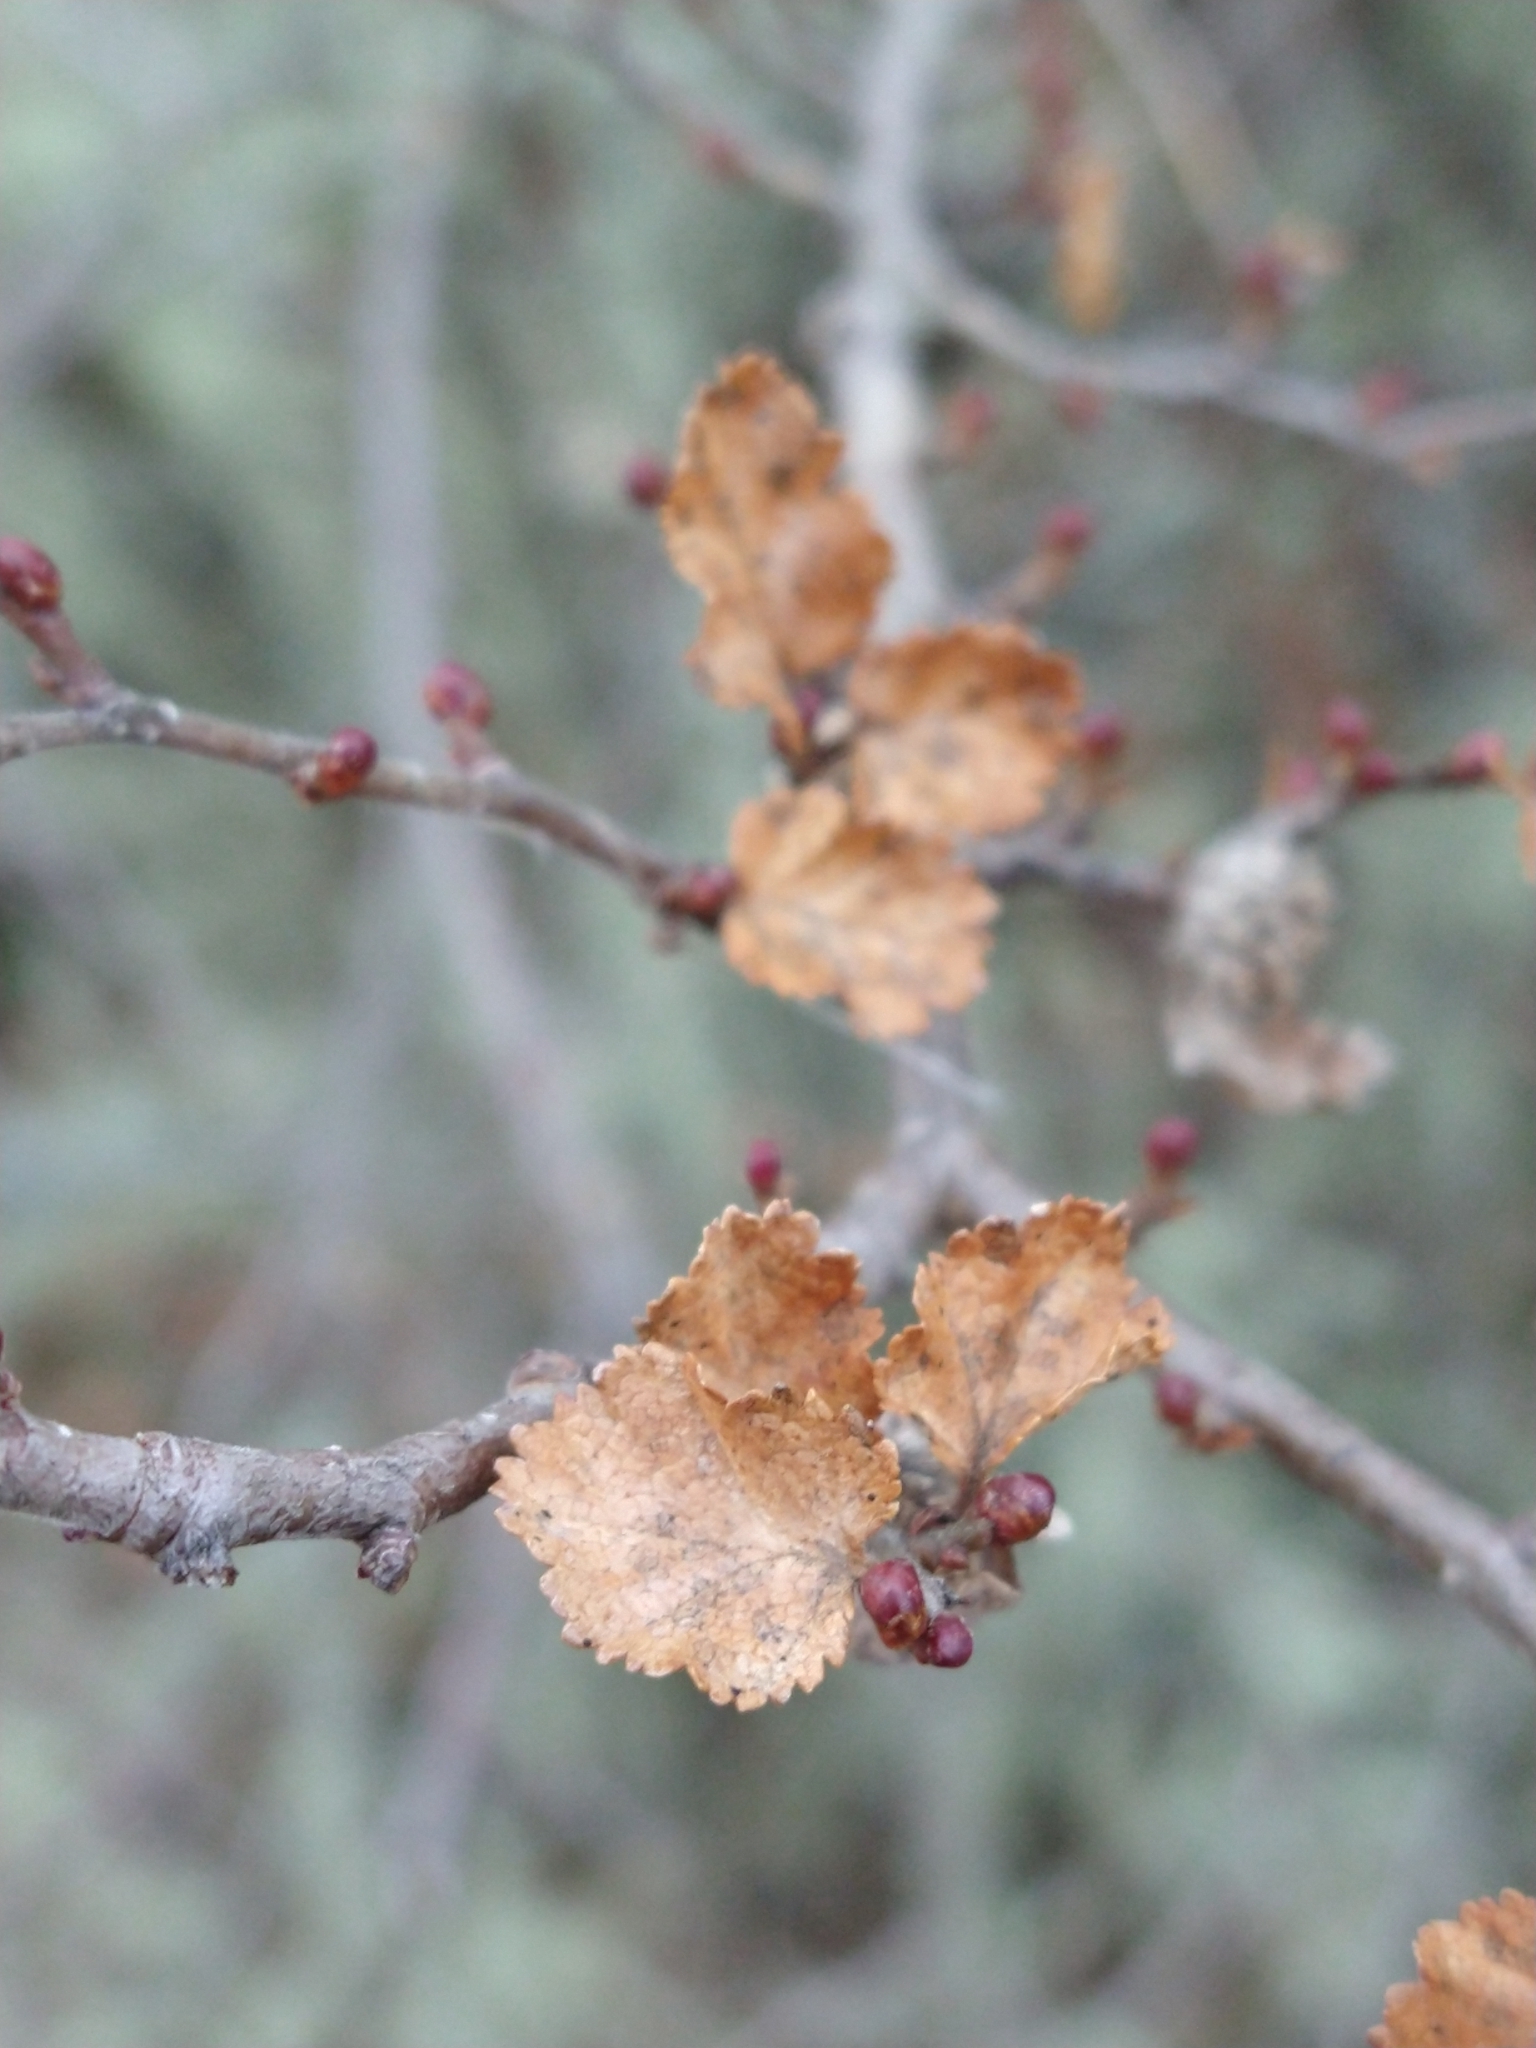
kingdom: Plantae
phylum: Tracheophyta
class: Magnoliopsida
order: Fagales
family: Nothofagaceae
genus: Nothofagus
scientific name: Nothofagus antarctica
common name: Antarctic beech
